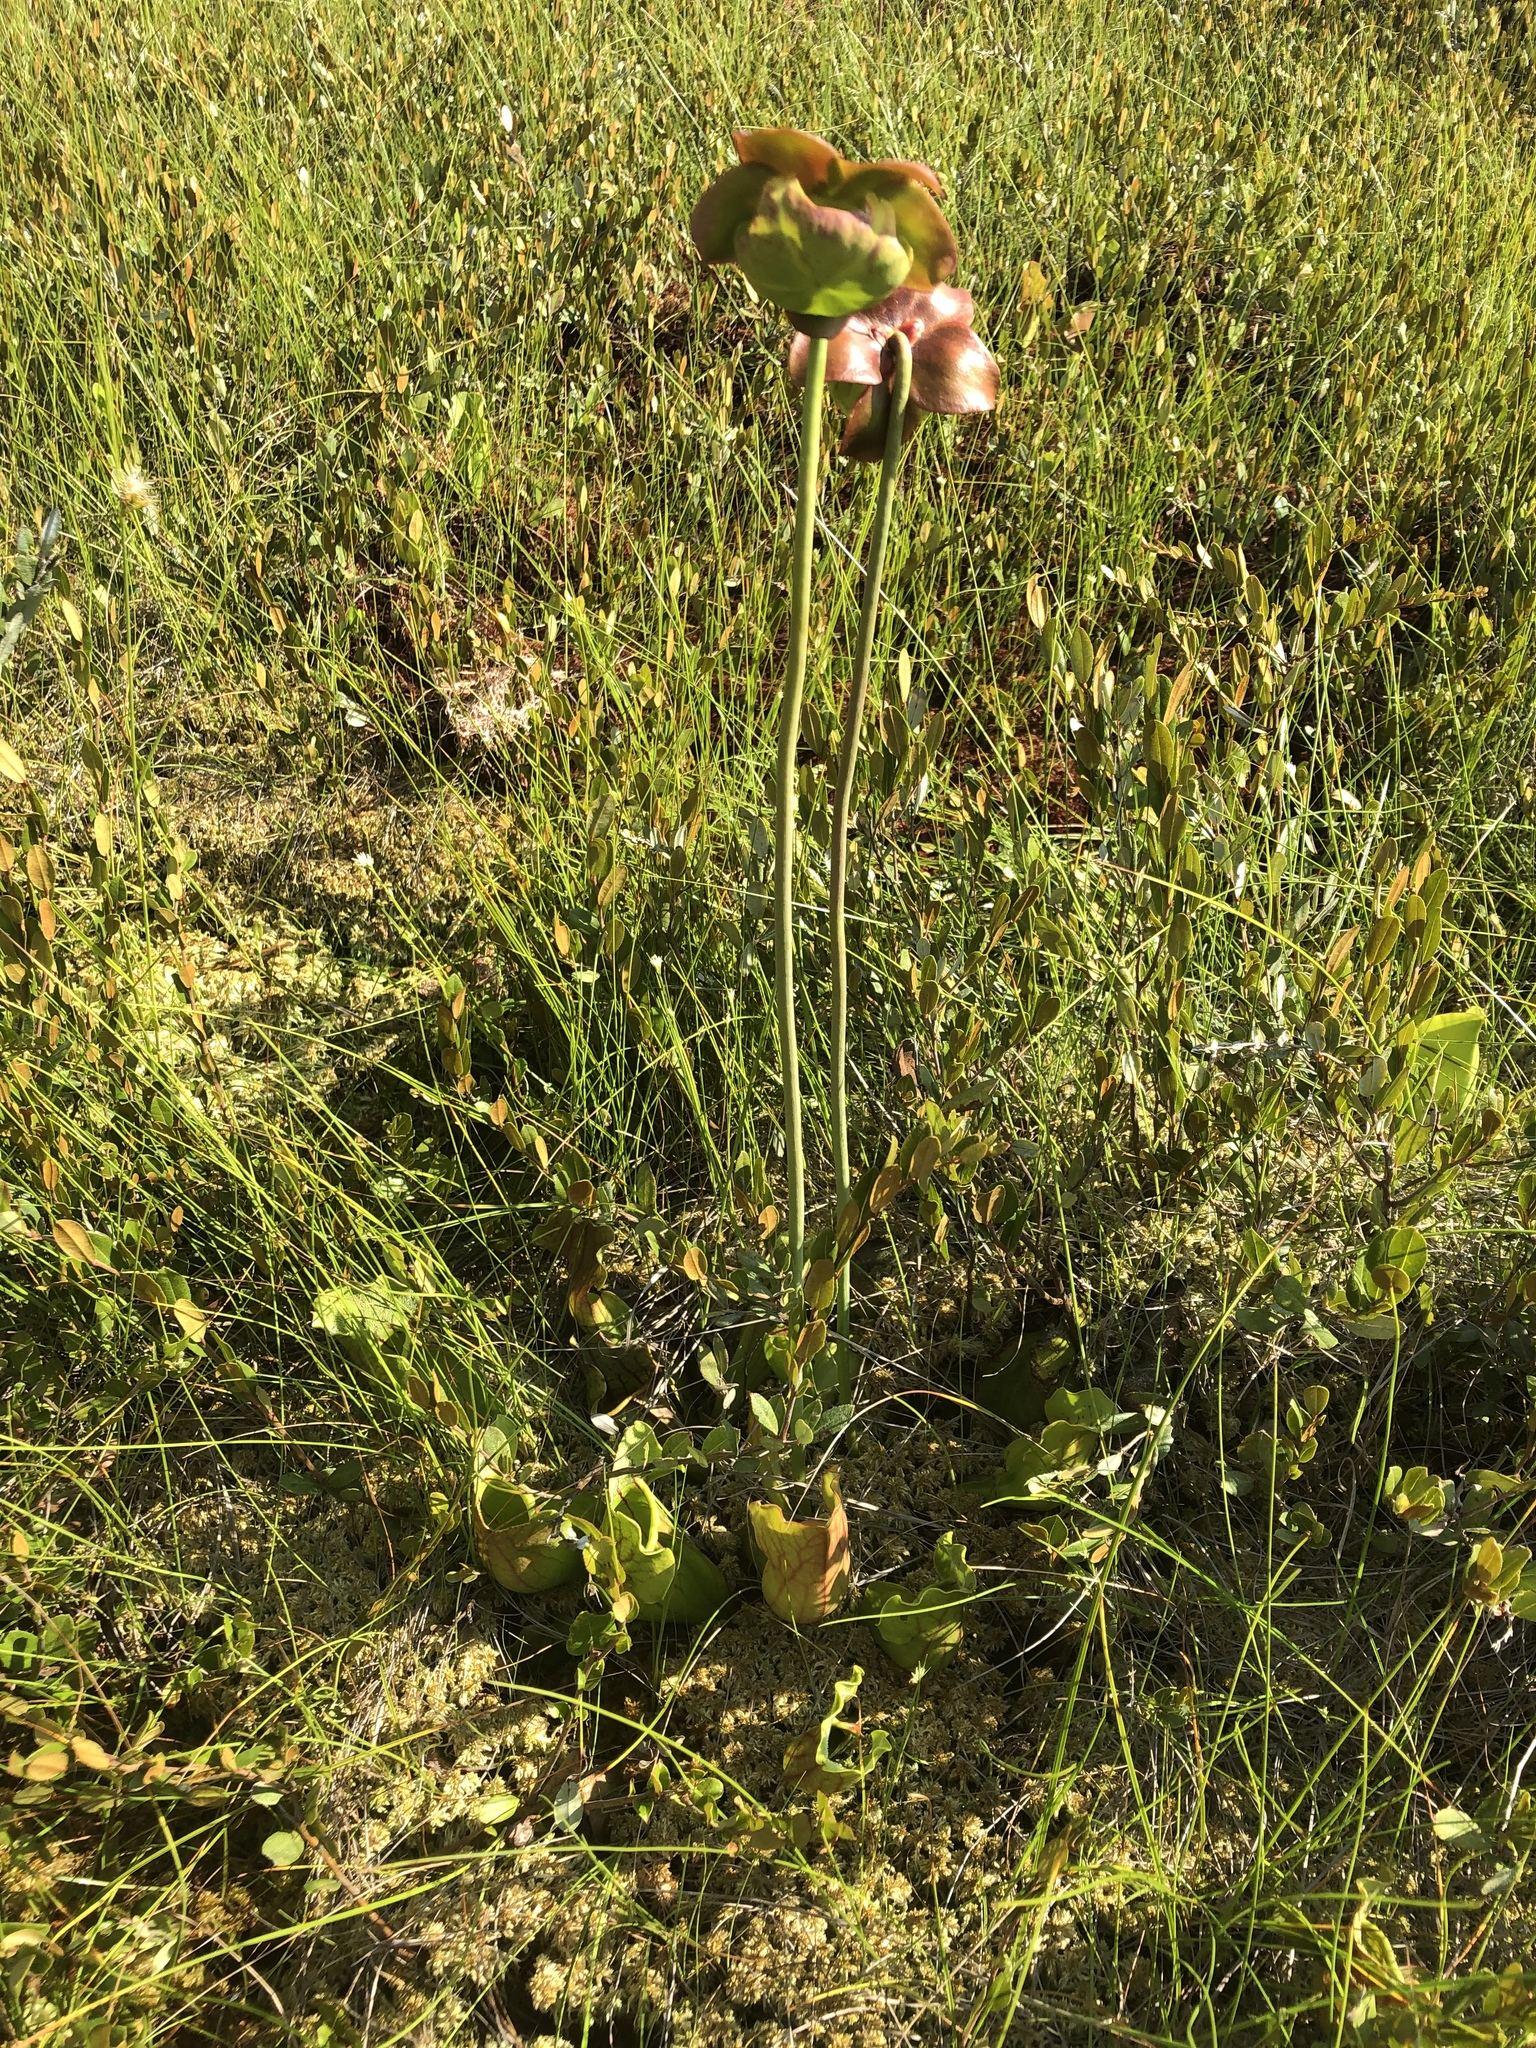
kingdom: Plantae
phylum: Tracheophyta
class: Magnoliopsida
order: Ericales
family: Sarraceniaceae
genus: Sarracenia
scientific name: Sarracenia purpurea
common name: Pitcherplant
